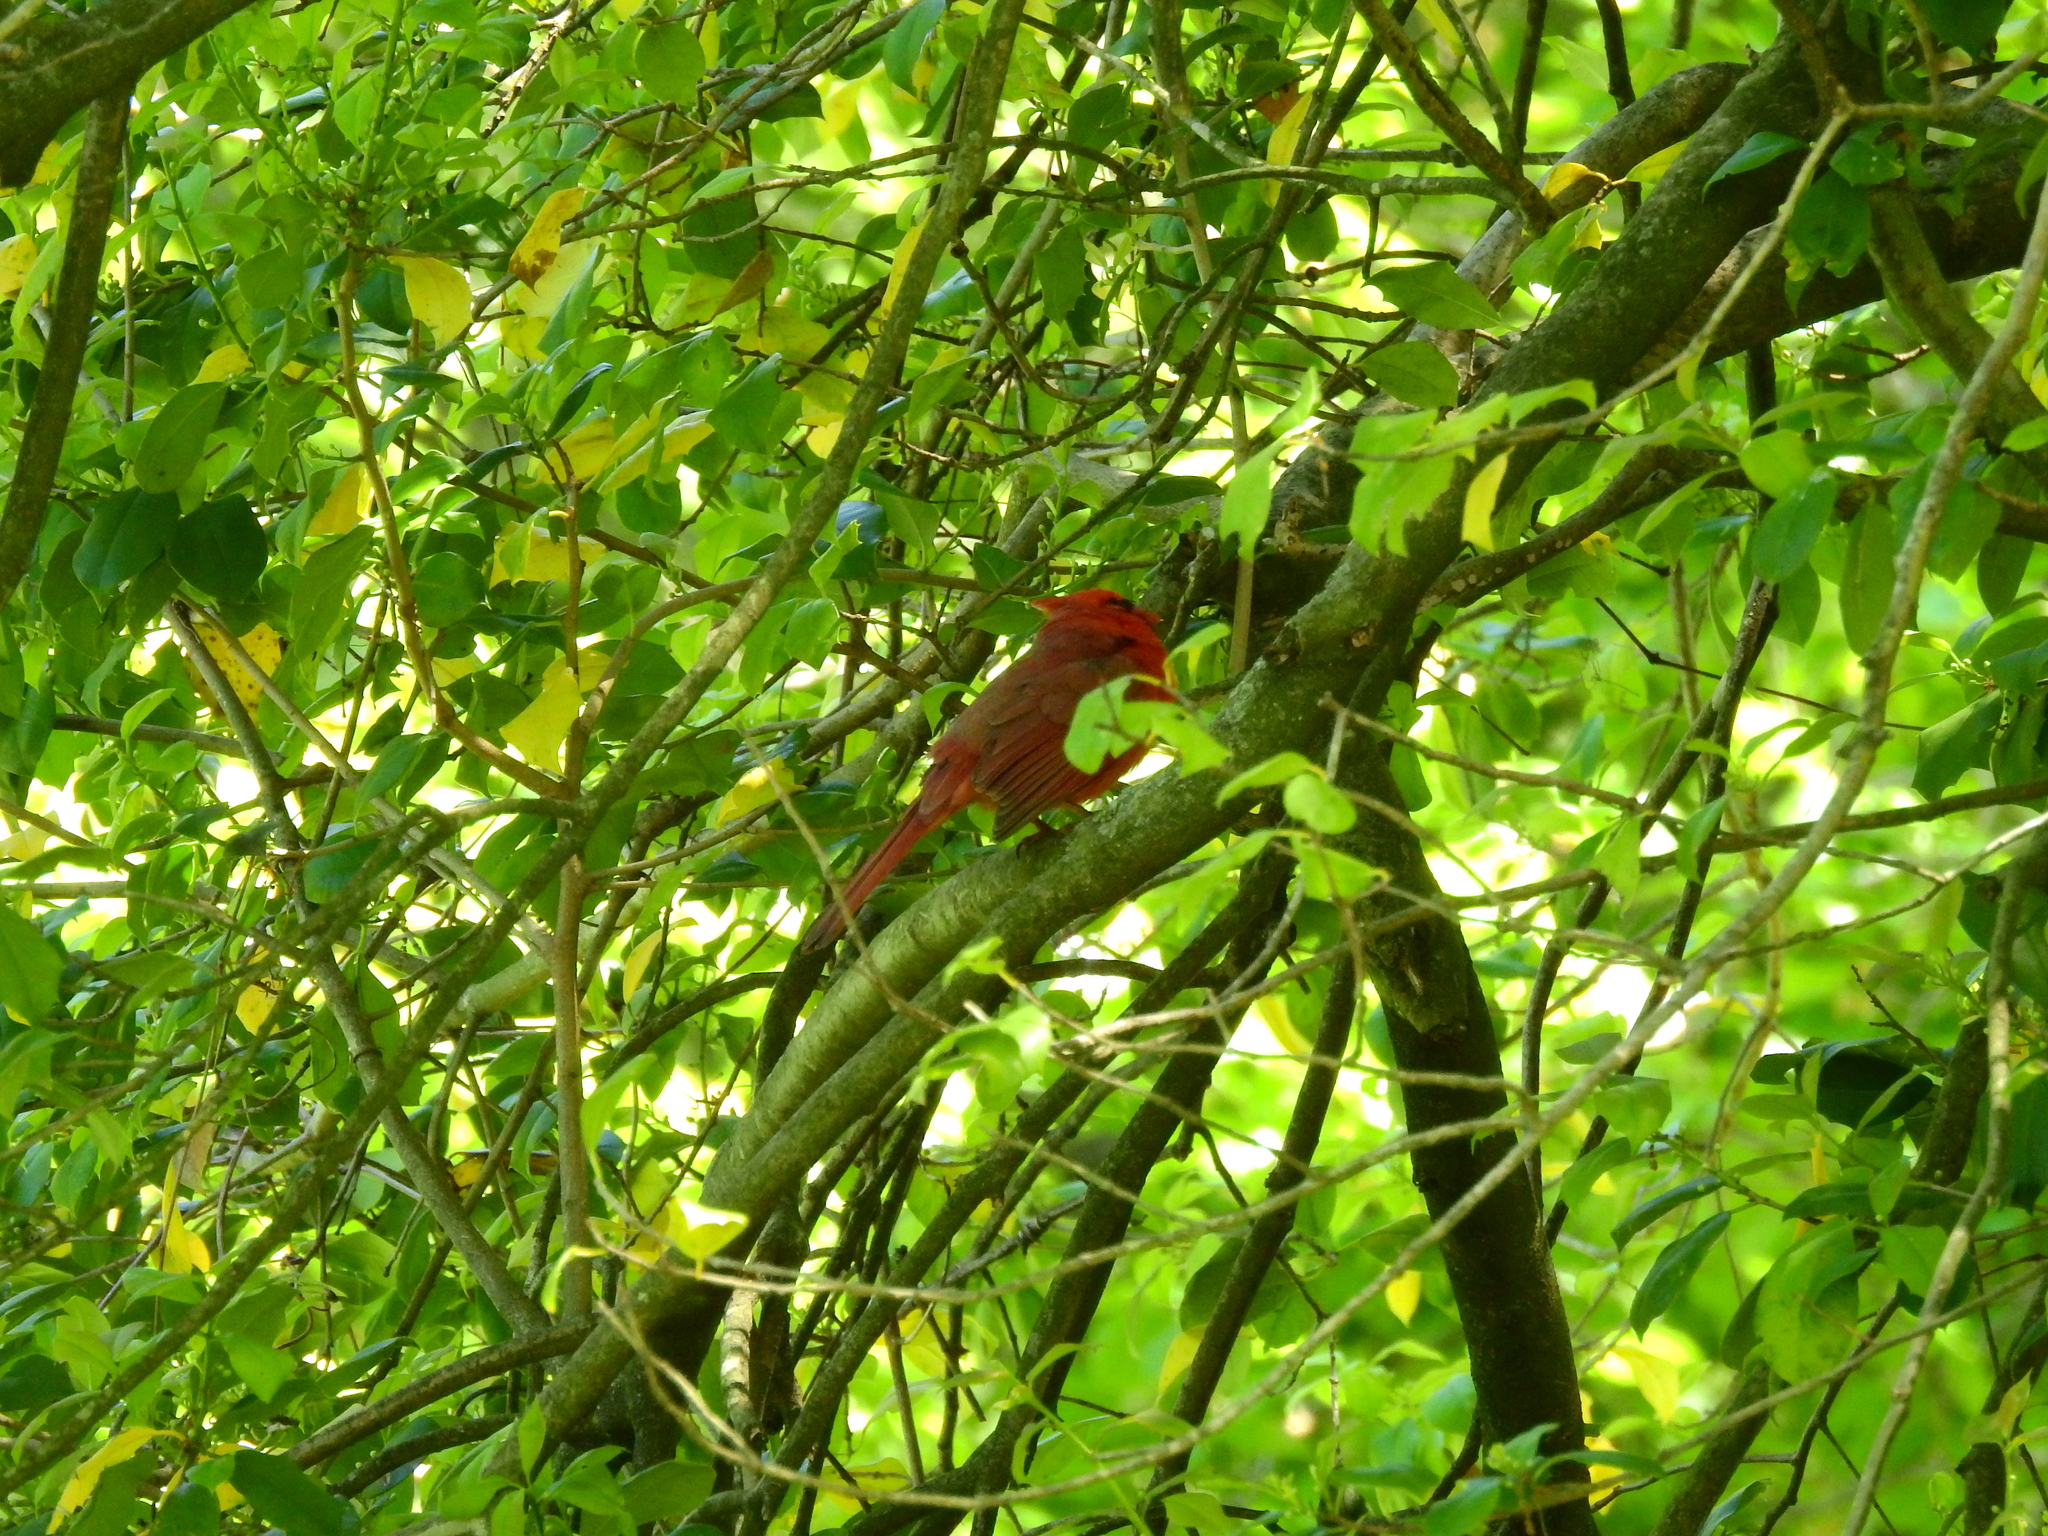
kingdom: Animalia
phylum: Chordata
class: Aves
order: Passeriformes
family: Cardinalidae
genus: Cardinalis
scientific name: Cardinalis cardinalis
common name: Northern cardinal
